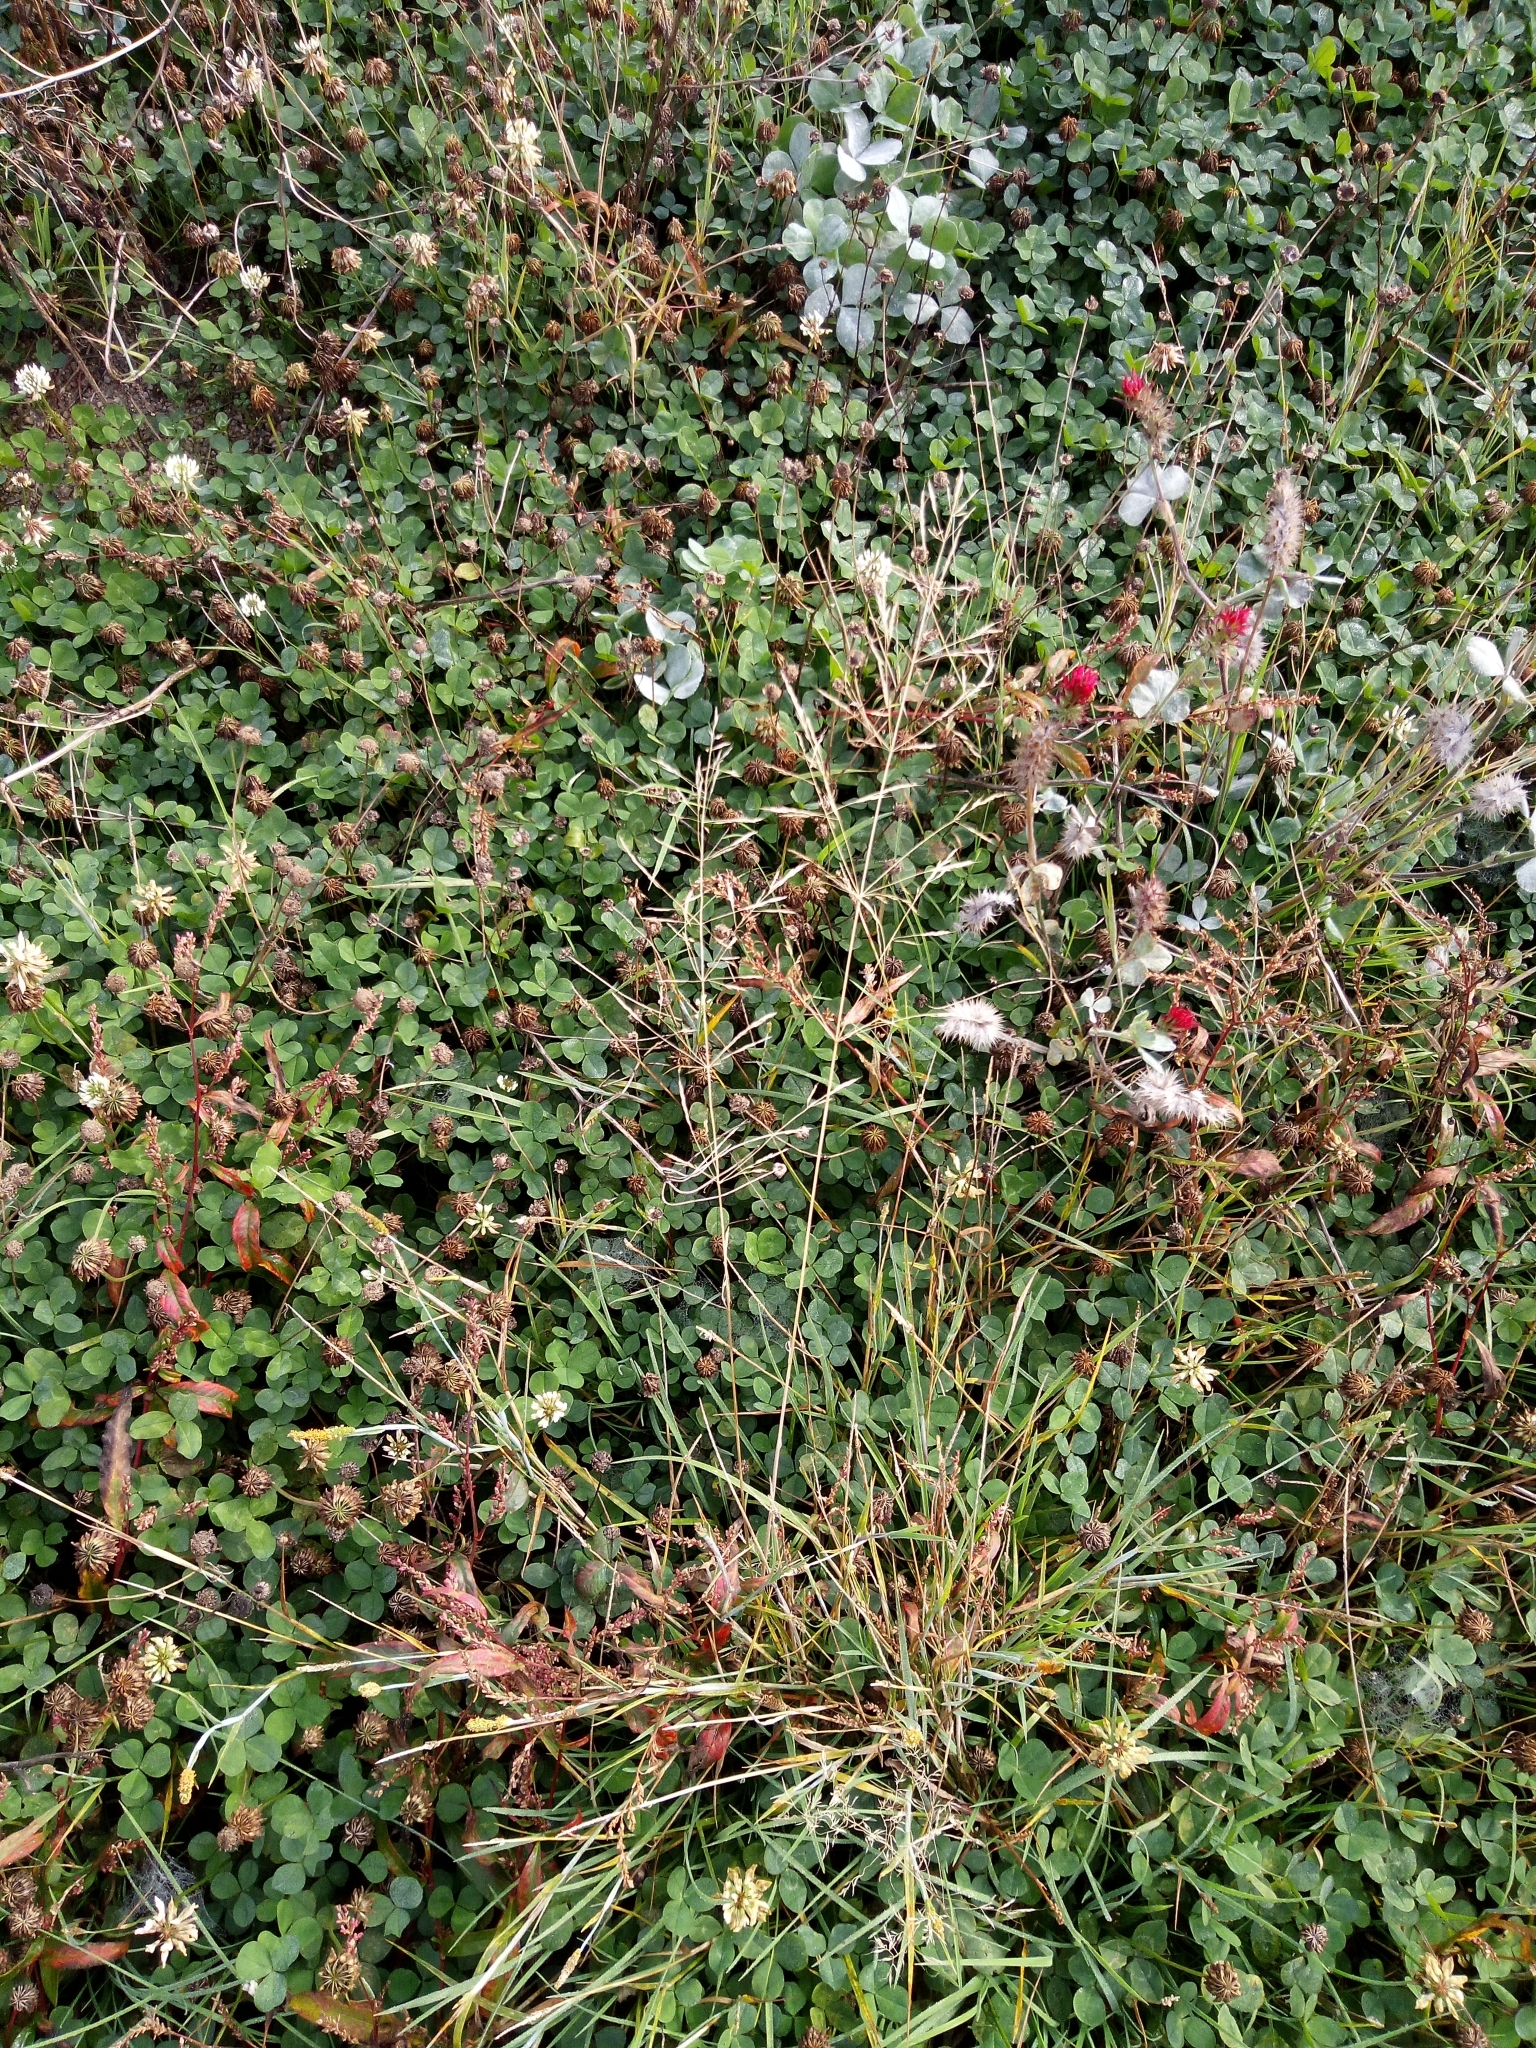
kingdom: Plantae
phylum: Tracheophyta
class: Liliopsida
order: Poales
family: Poaceae
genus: Deschampsia
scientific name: Deschampsia cespitosa
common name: Tufted hair-grass
